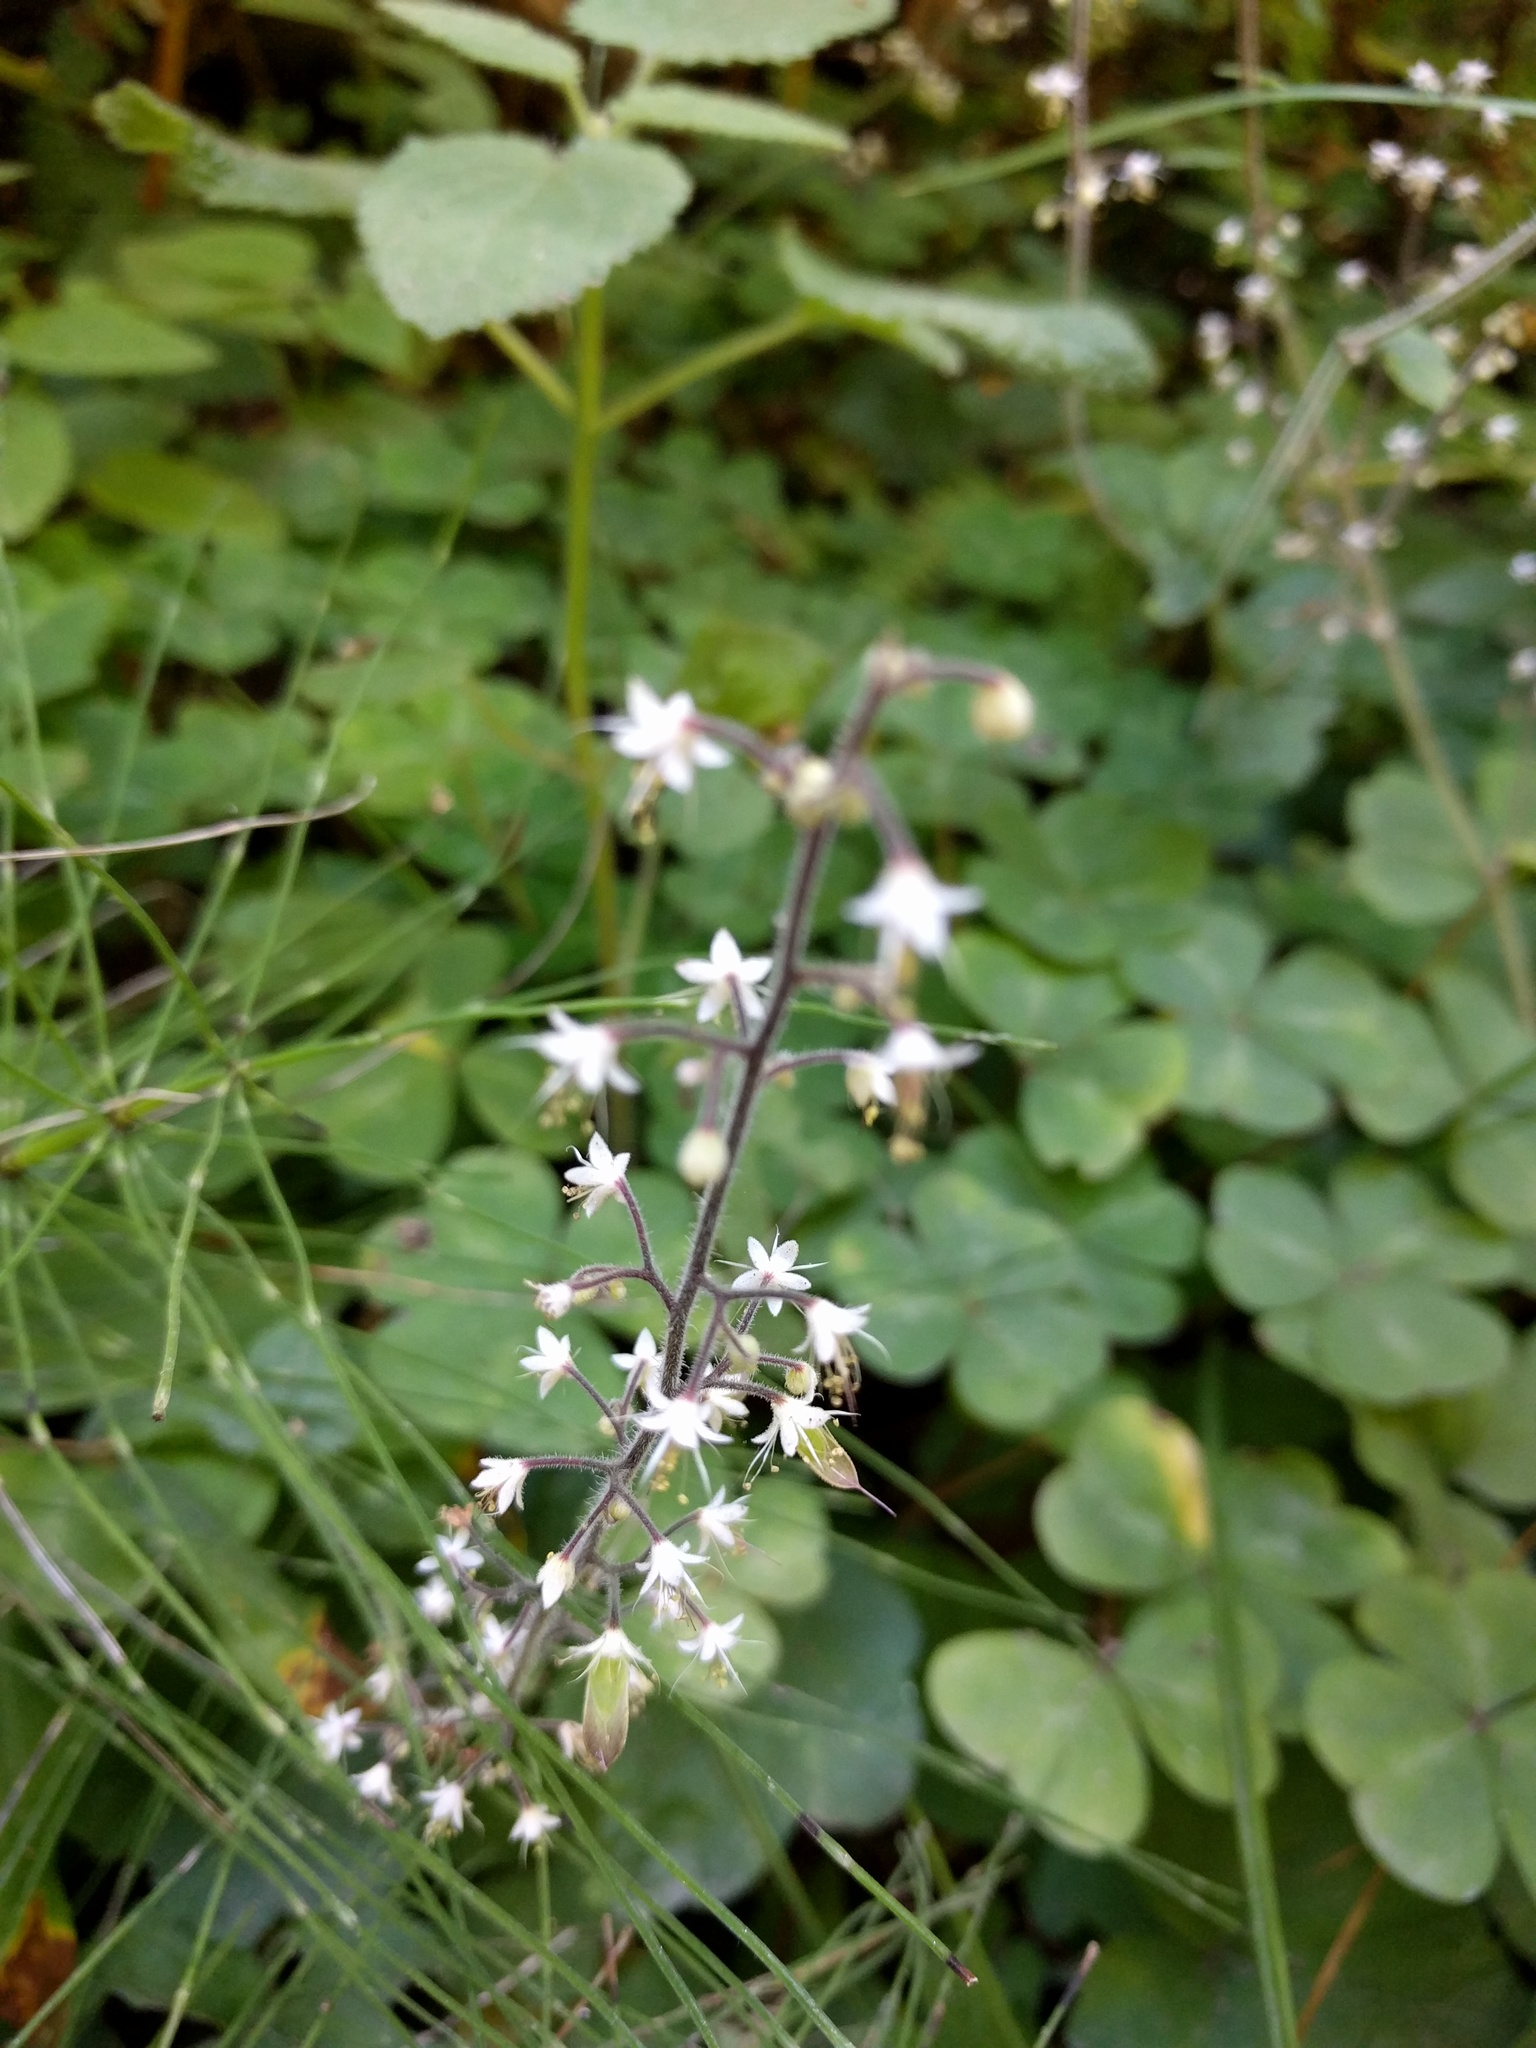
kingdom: Plantae
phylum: Tracheophyta
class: Magnoliopsida
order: Saxifragales
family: Saxifragaceae
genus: Tiarella
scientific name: Tiarella trifoliata
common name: Sugar-scoop
